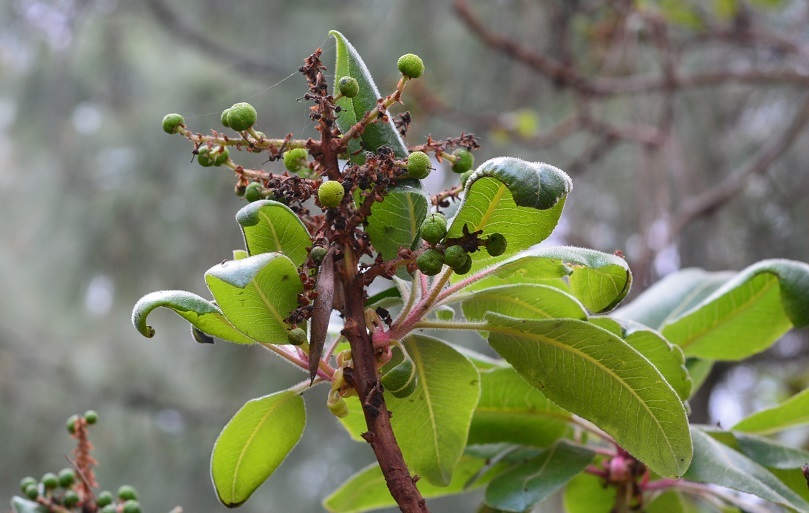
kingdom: Plantae
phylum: Tracheophyta
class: Magnoliopsida
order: Ericales
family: Ericaceae
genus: Arbutus
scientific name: Arbutus xalapensis
